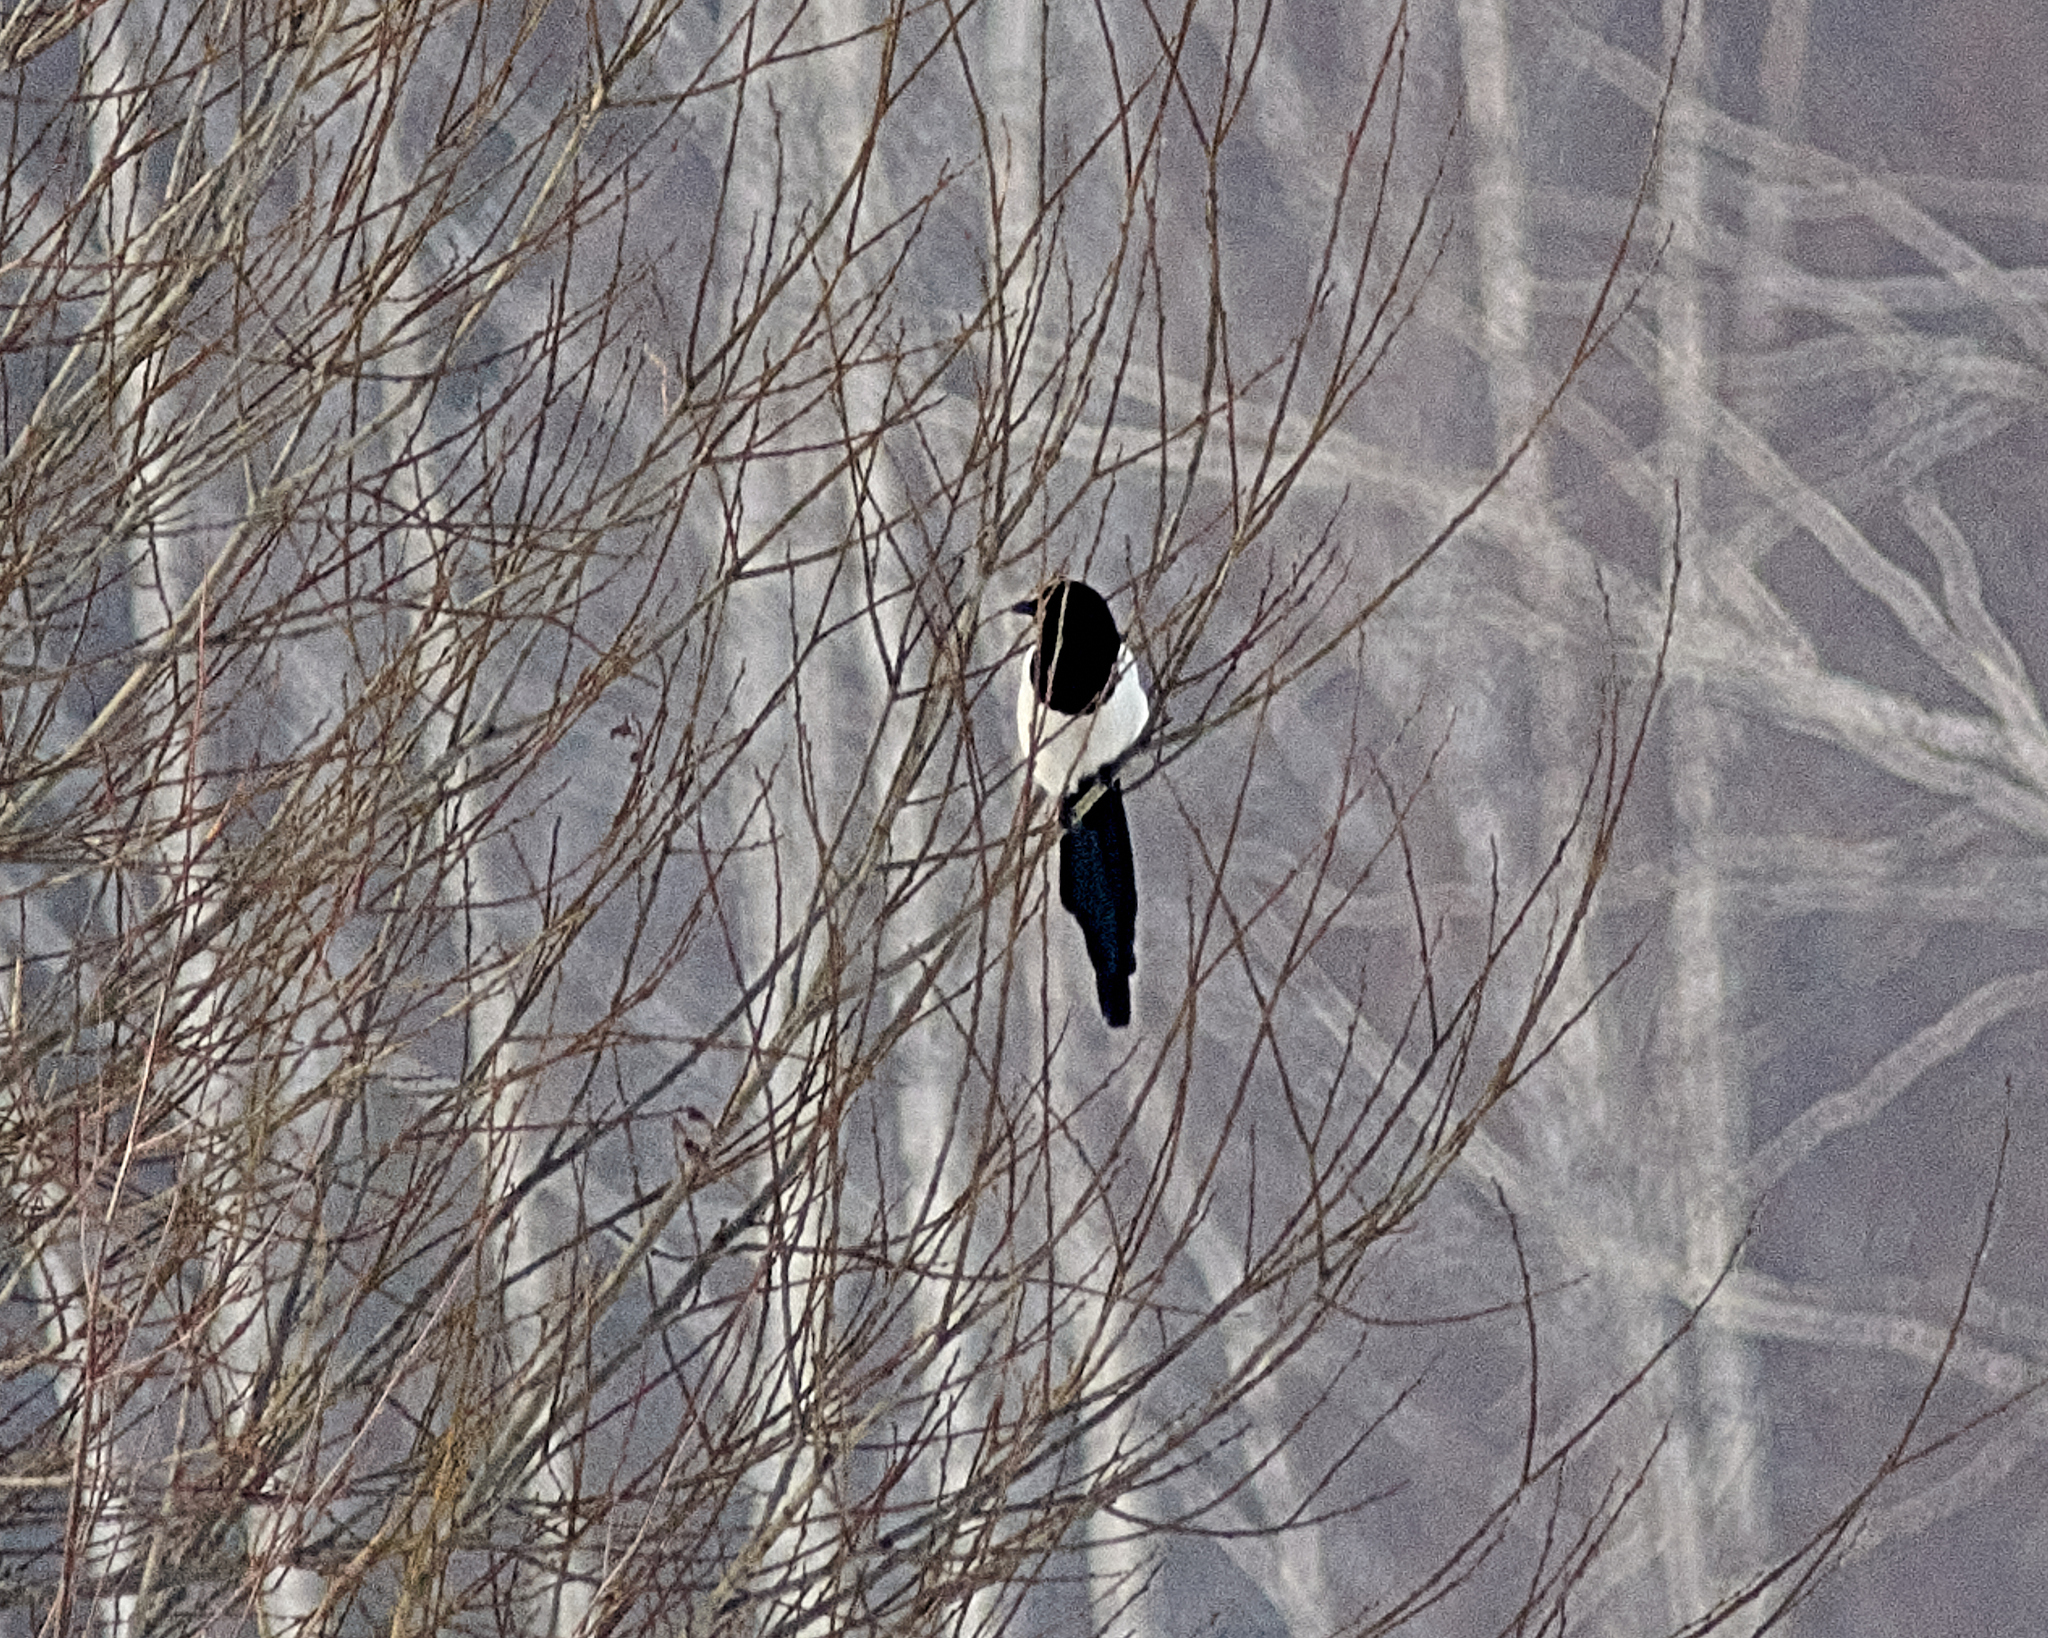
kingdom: Animalia
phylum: Chordata
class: Aves
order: Passeriformes
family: Corvidae
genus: Pica
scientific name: Pica pica
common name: Eurasian magpie
